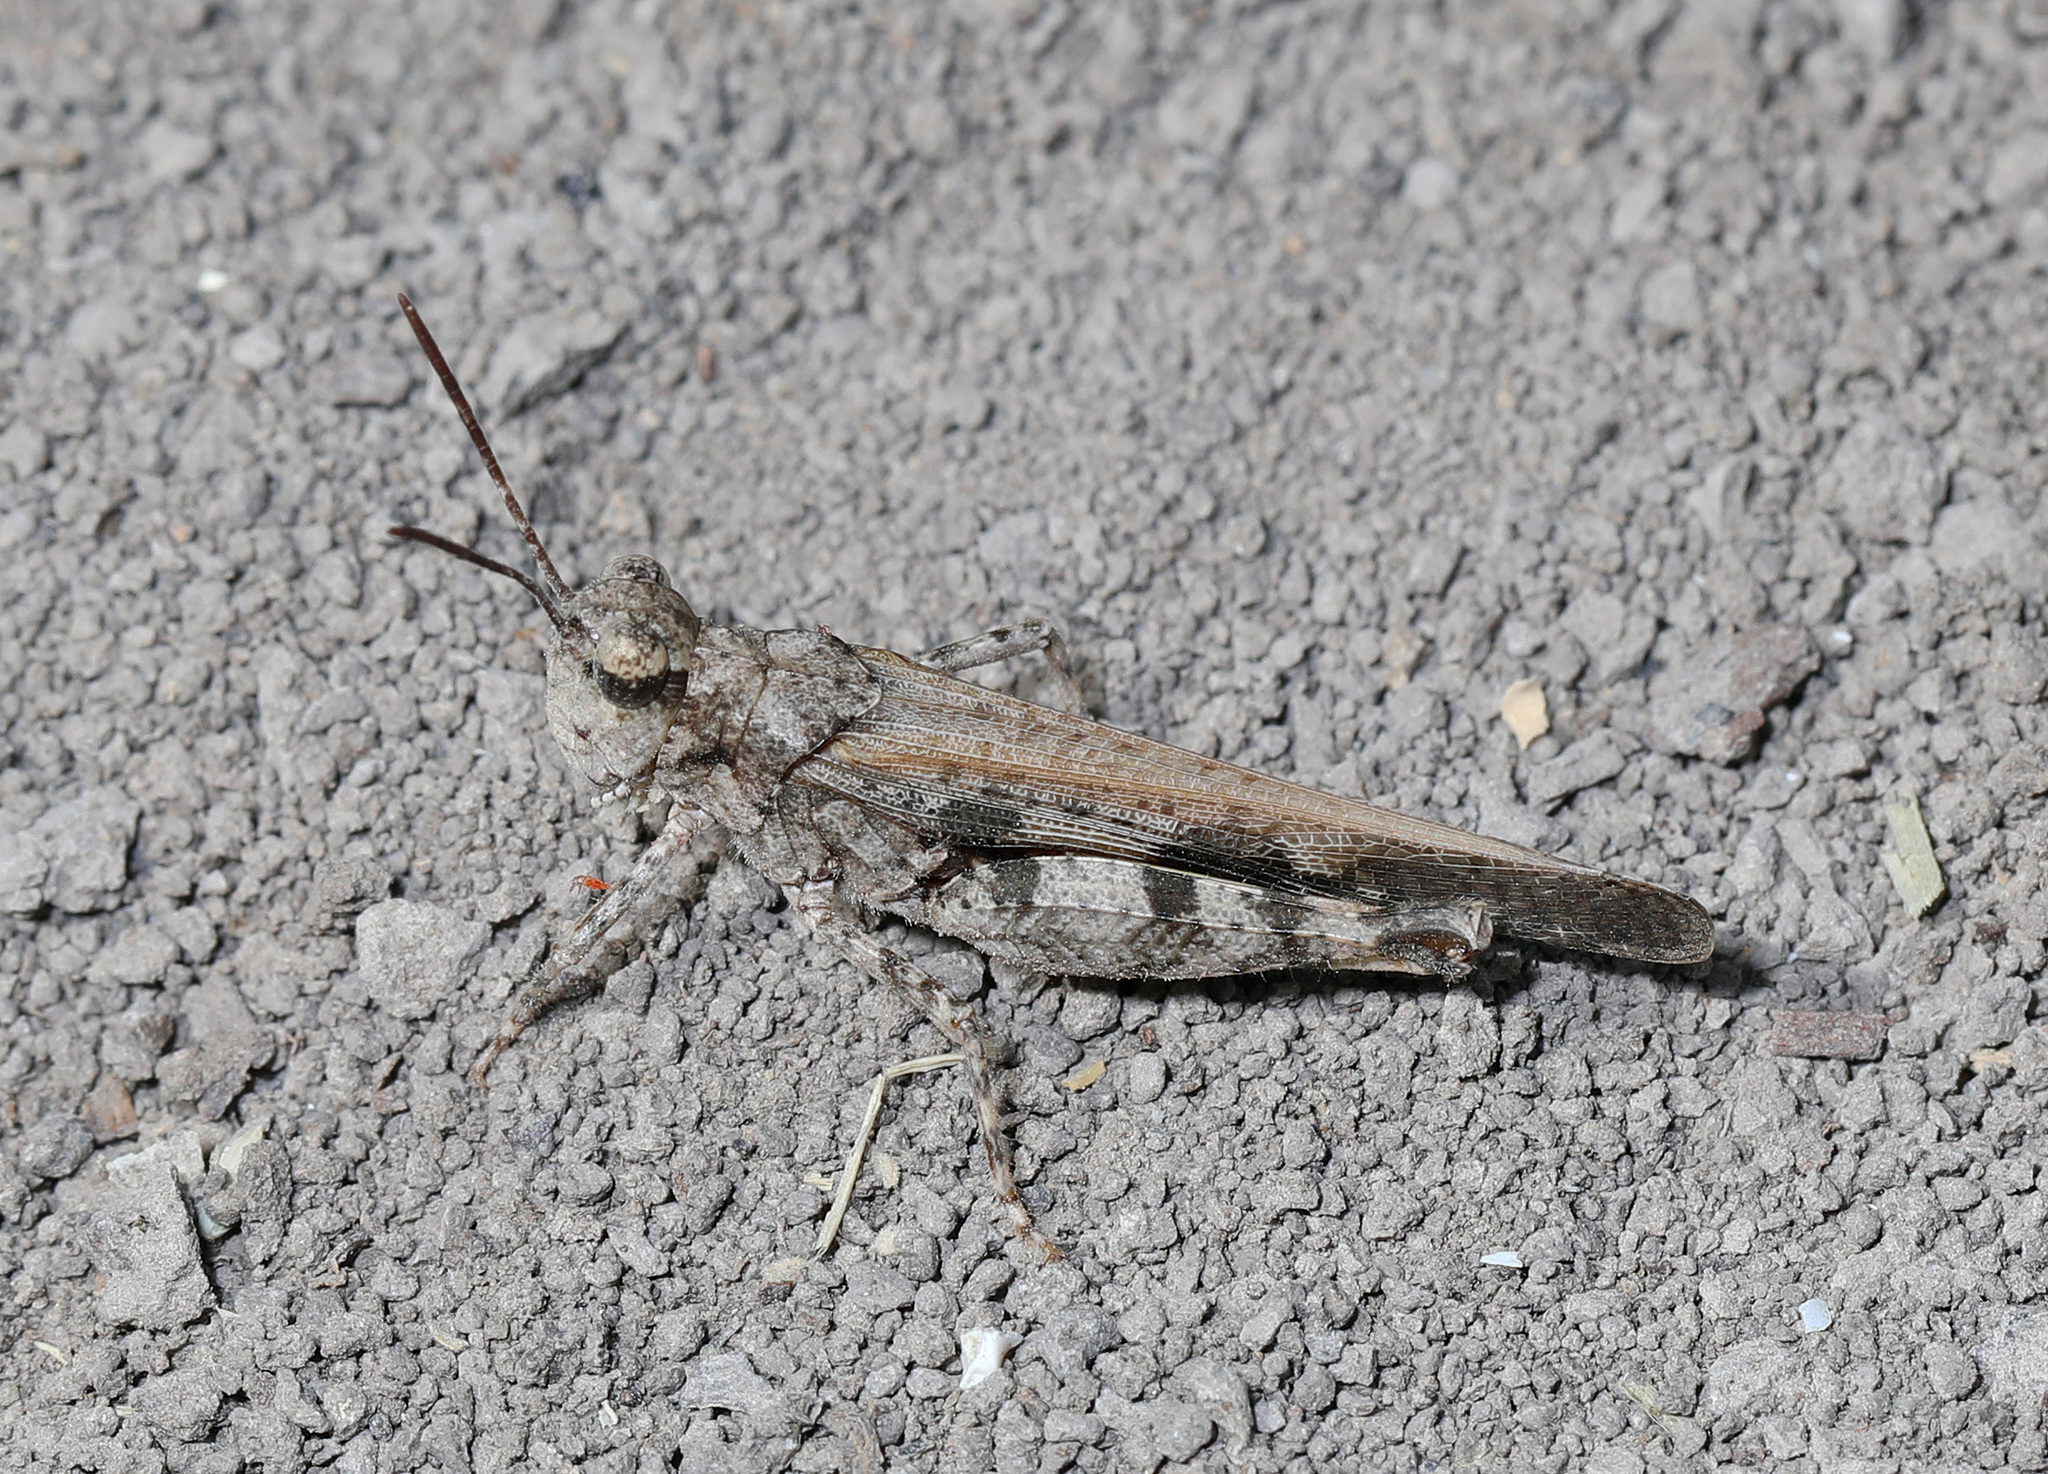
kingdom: Animalia
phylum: Arthropoda
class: Insecta
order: Orthoptera
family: Acrididae
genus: Nebulatettix
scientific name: Nebulatettix subgracilis
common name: Southwestern dusky grasshopper
